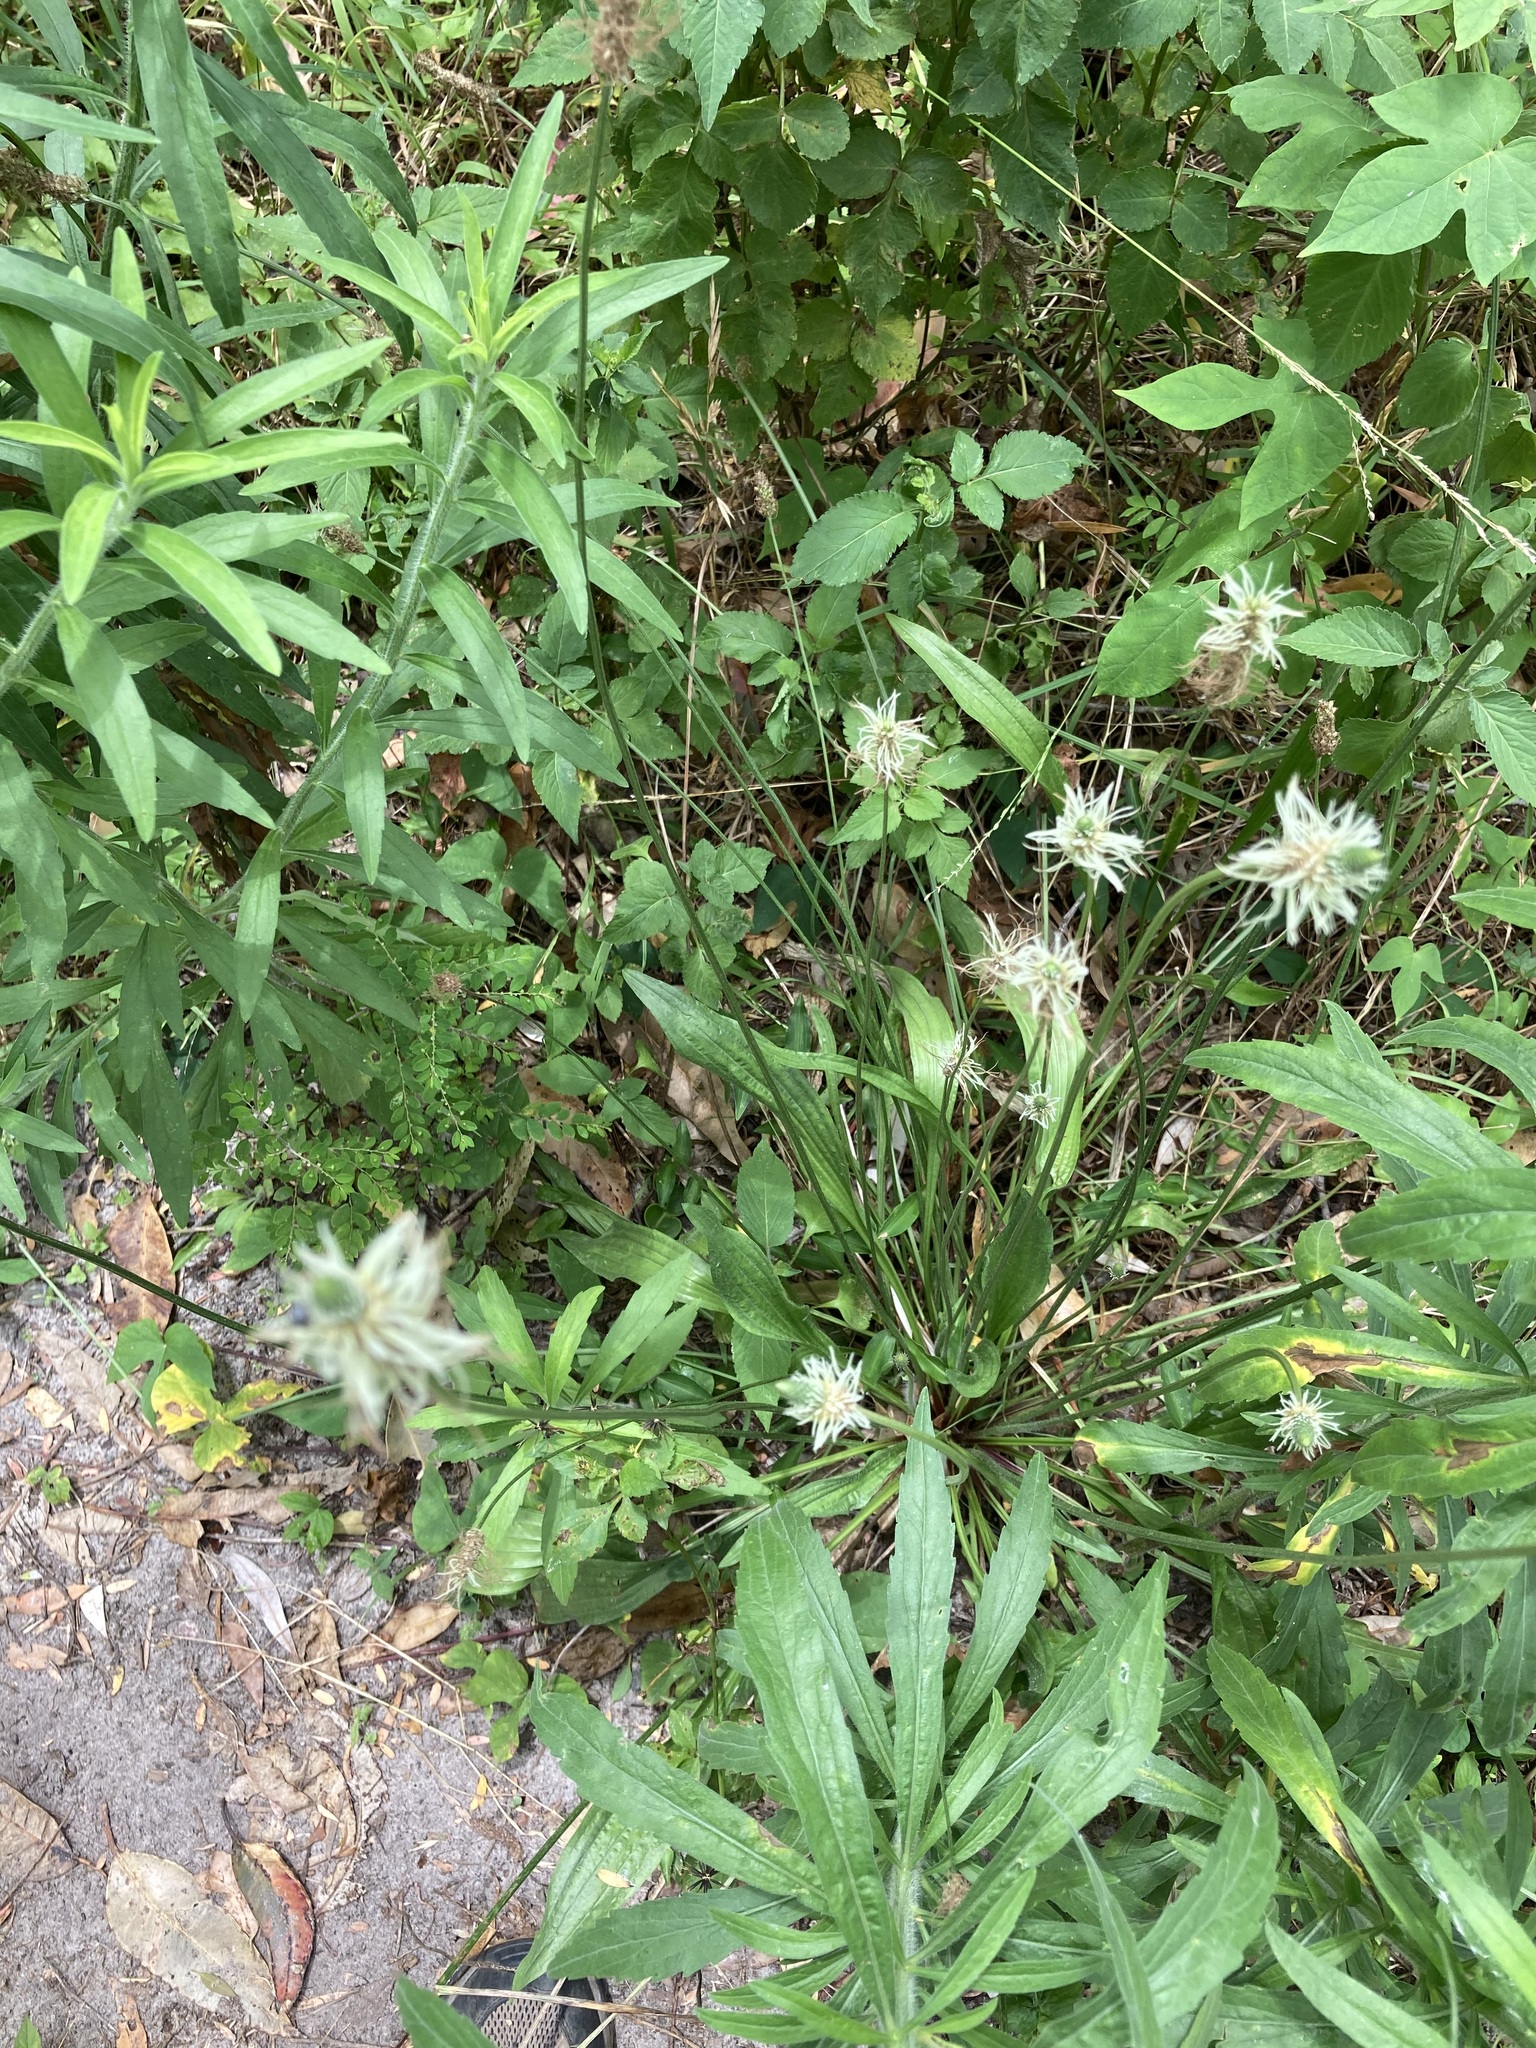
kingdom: Plantae
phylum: Tracheophyta
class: Magnoliopsida
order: Lamiales
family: Plantaginaceae
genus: Plantago
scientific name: Plantago lanceolata
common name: Ribwort plantain
